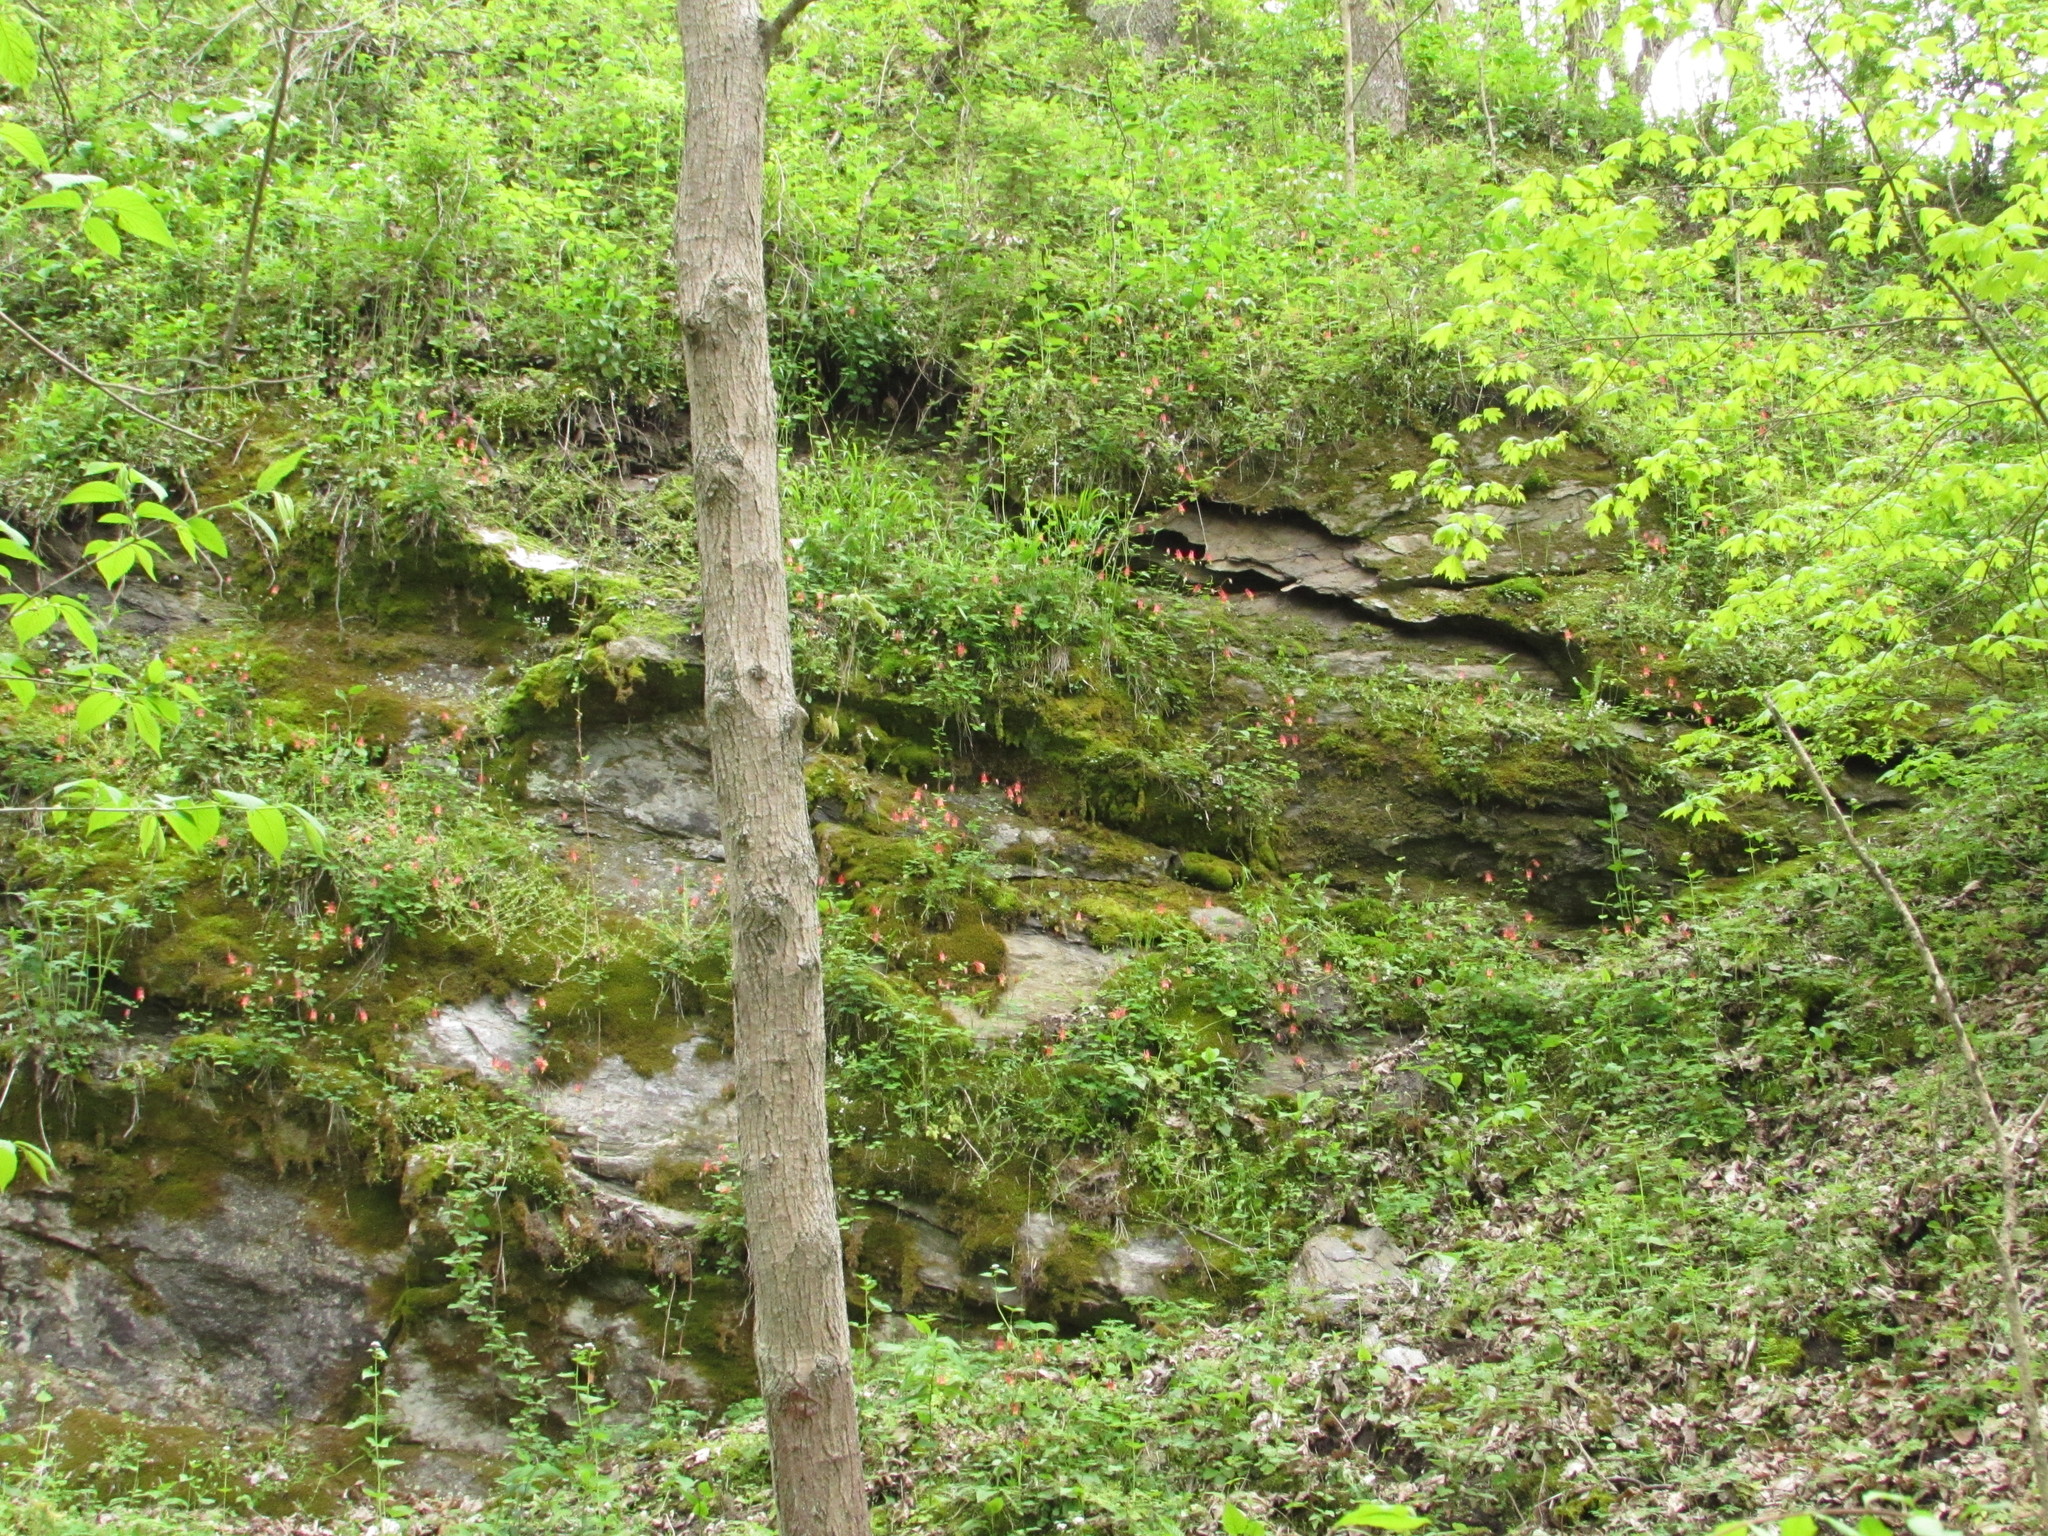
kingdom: Plantae
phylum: Tracheophyta
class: Magnoliopsida
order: Ranunculales
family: Ranunculaceae
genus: Aquilegia
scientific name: Aquilegia canadensis
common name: American columbine
